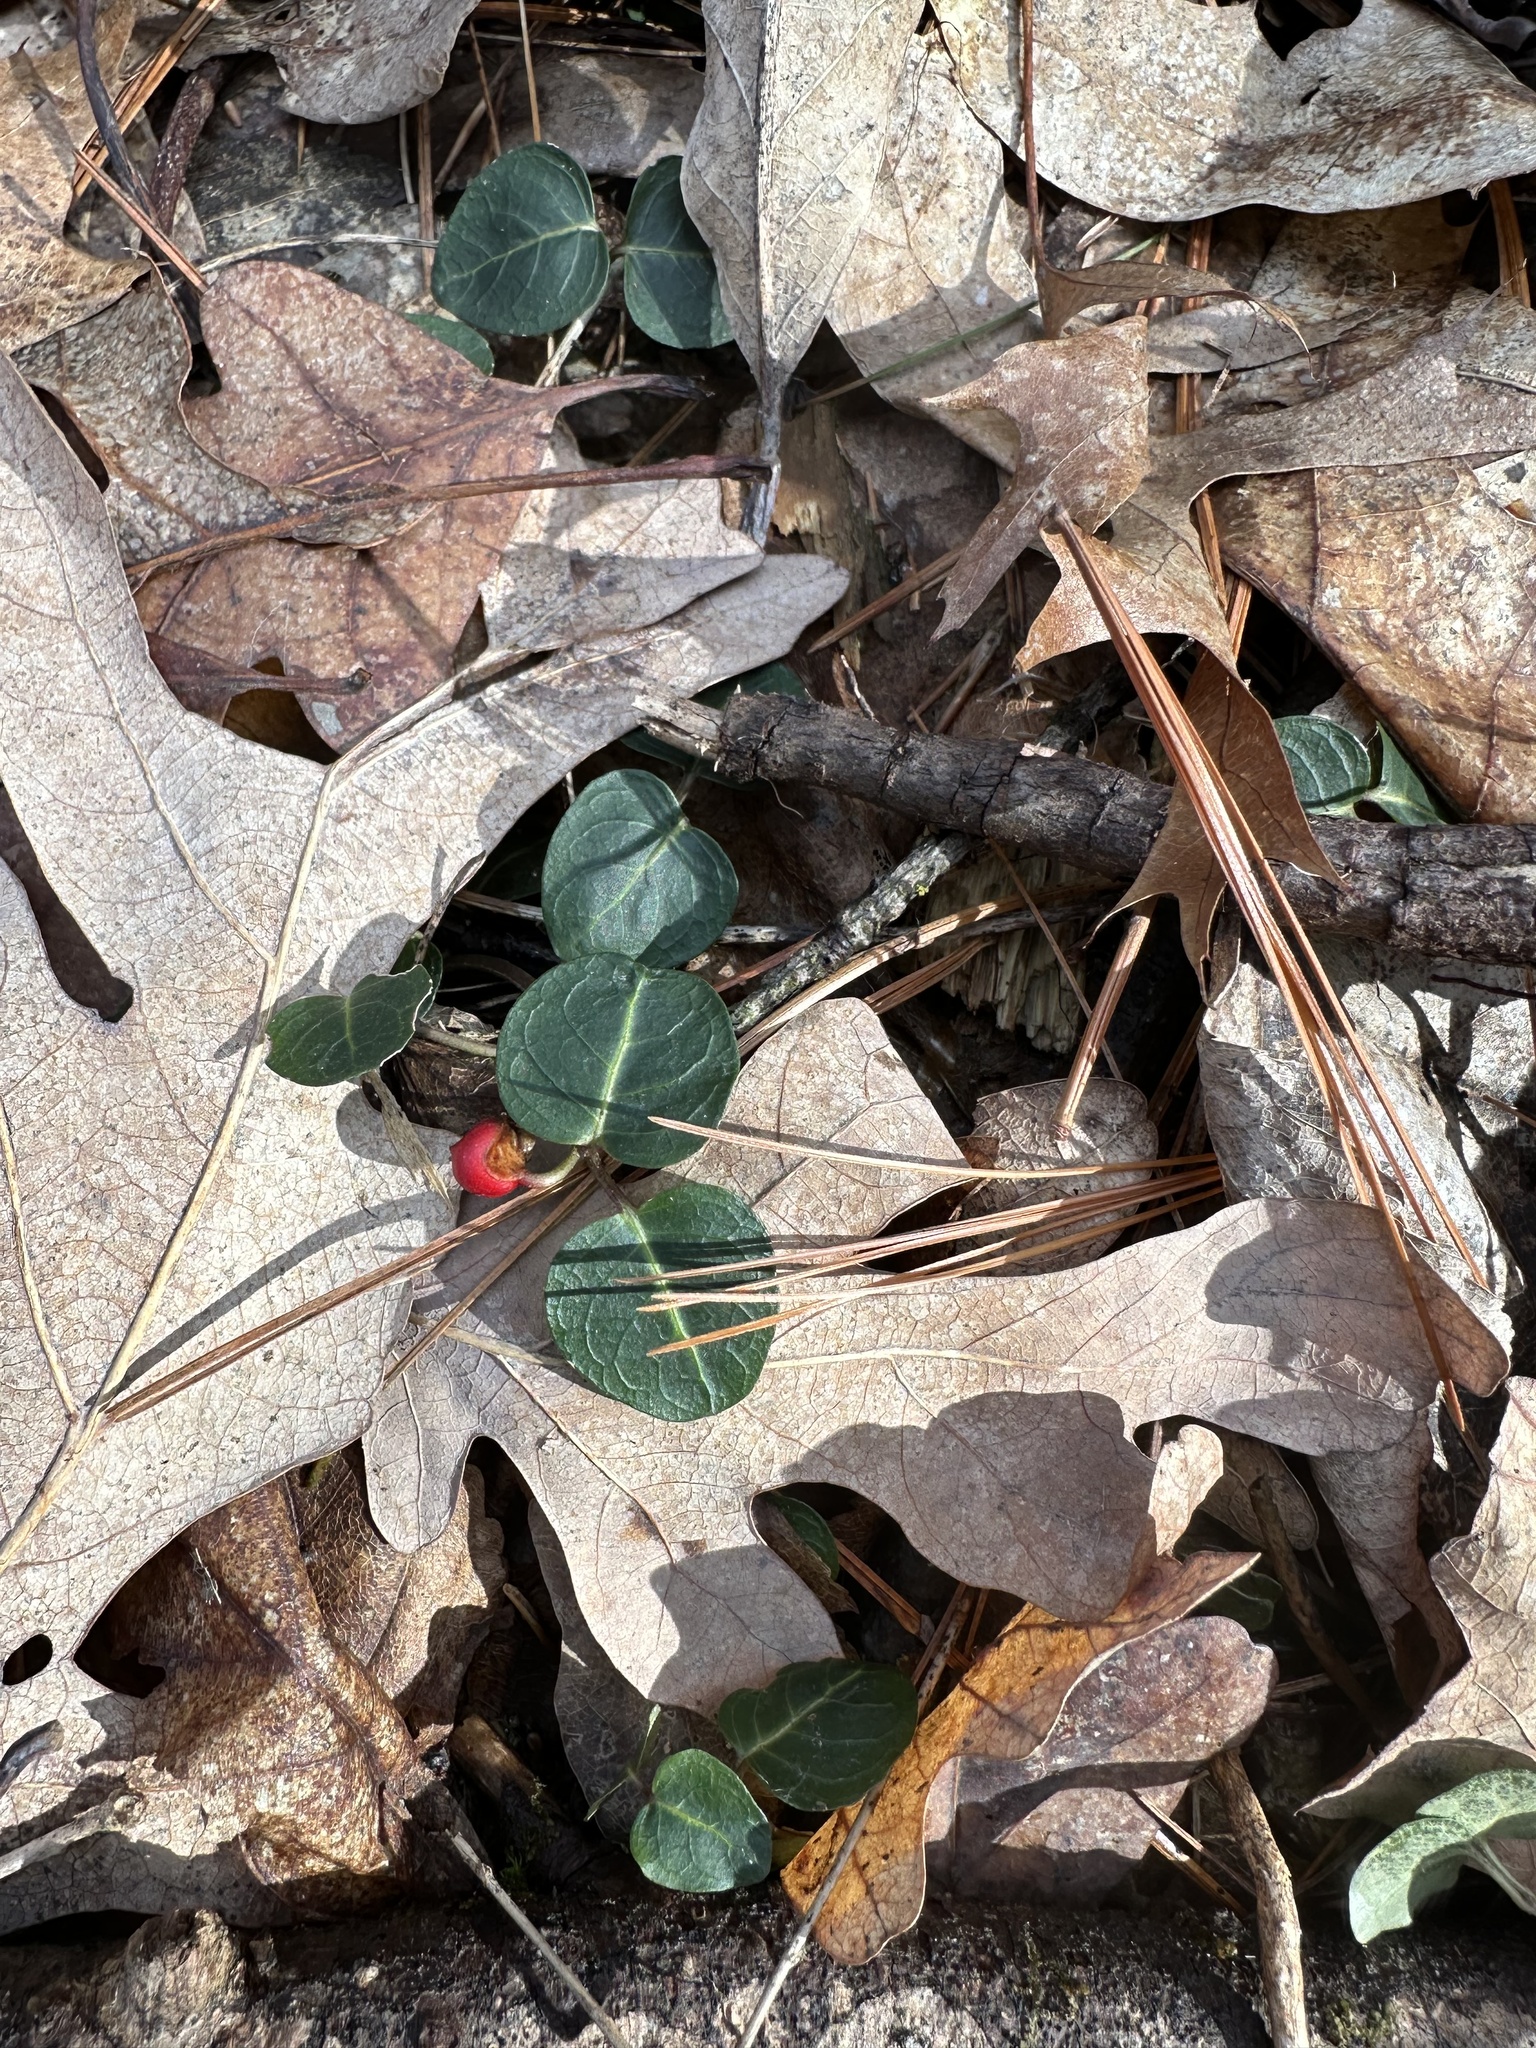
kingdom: Plantae
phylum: Tracheophyta
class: Magnoliopsida
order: Gentianales
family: Rubiaceae
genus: Mitchella
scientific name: Mitchella repens
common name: Partridge-berry
